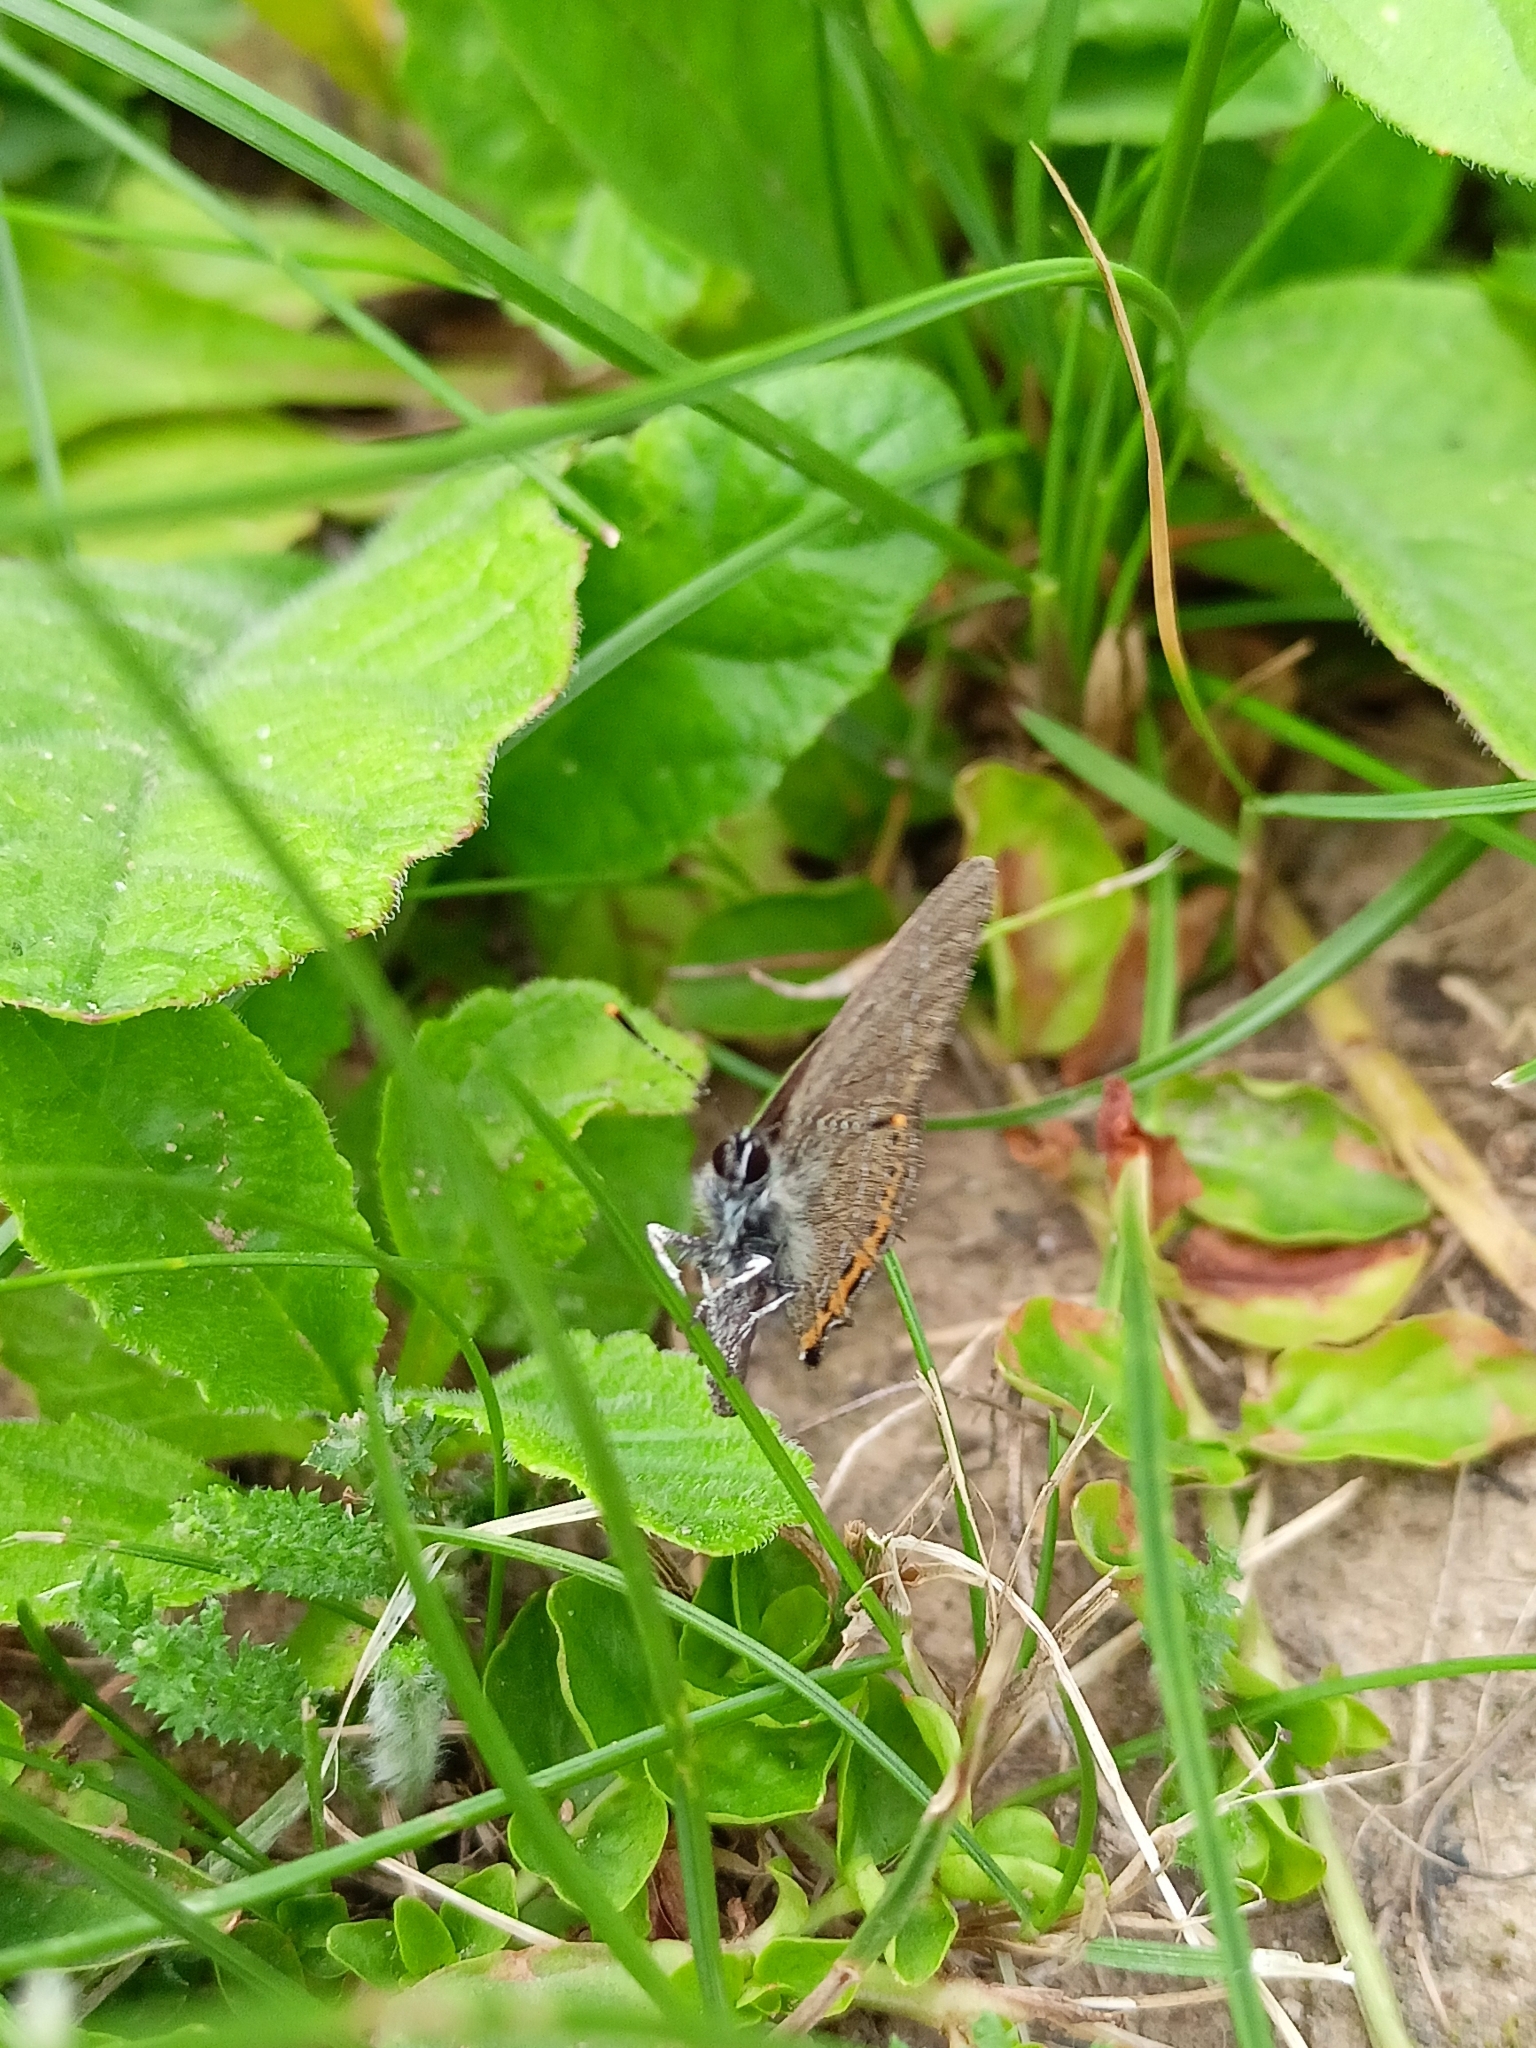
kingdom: Animalia
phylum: Arthropoda
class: Insecta
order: Lepidoptera
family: Lycaenidae
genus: Fixsenia
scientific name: Fixsenia pruni
